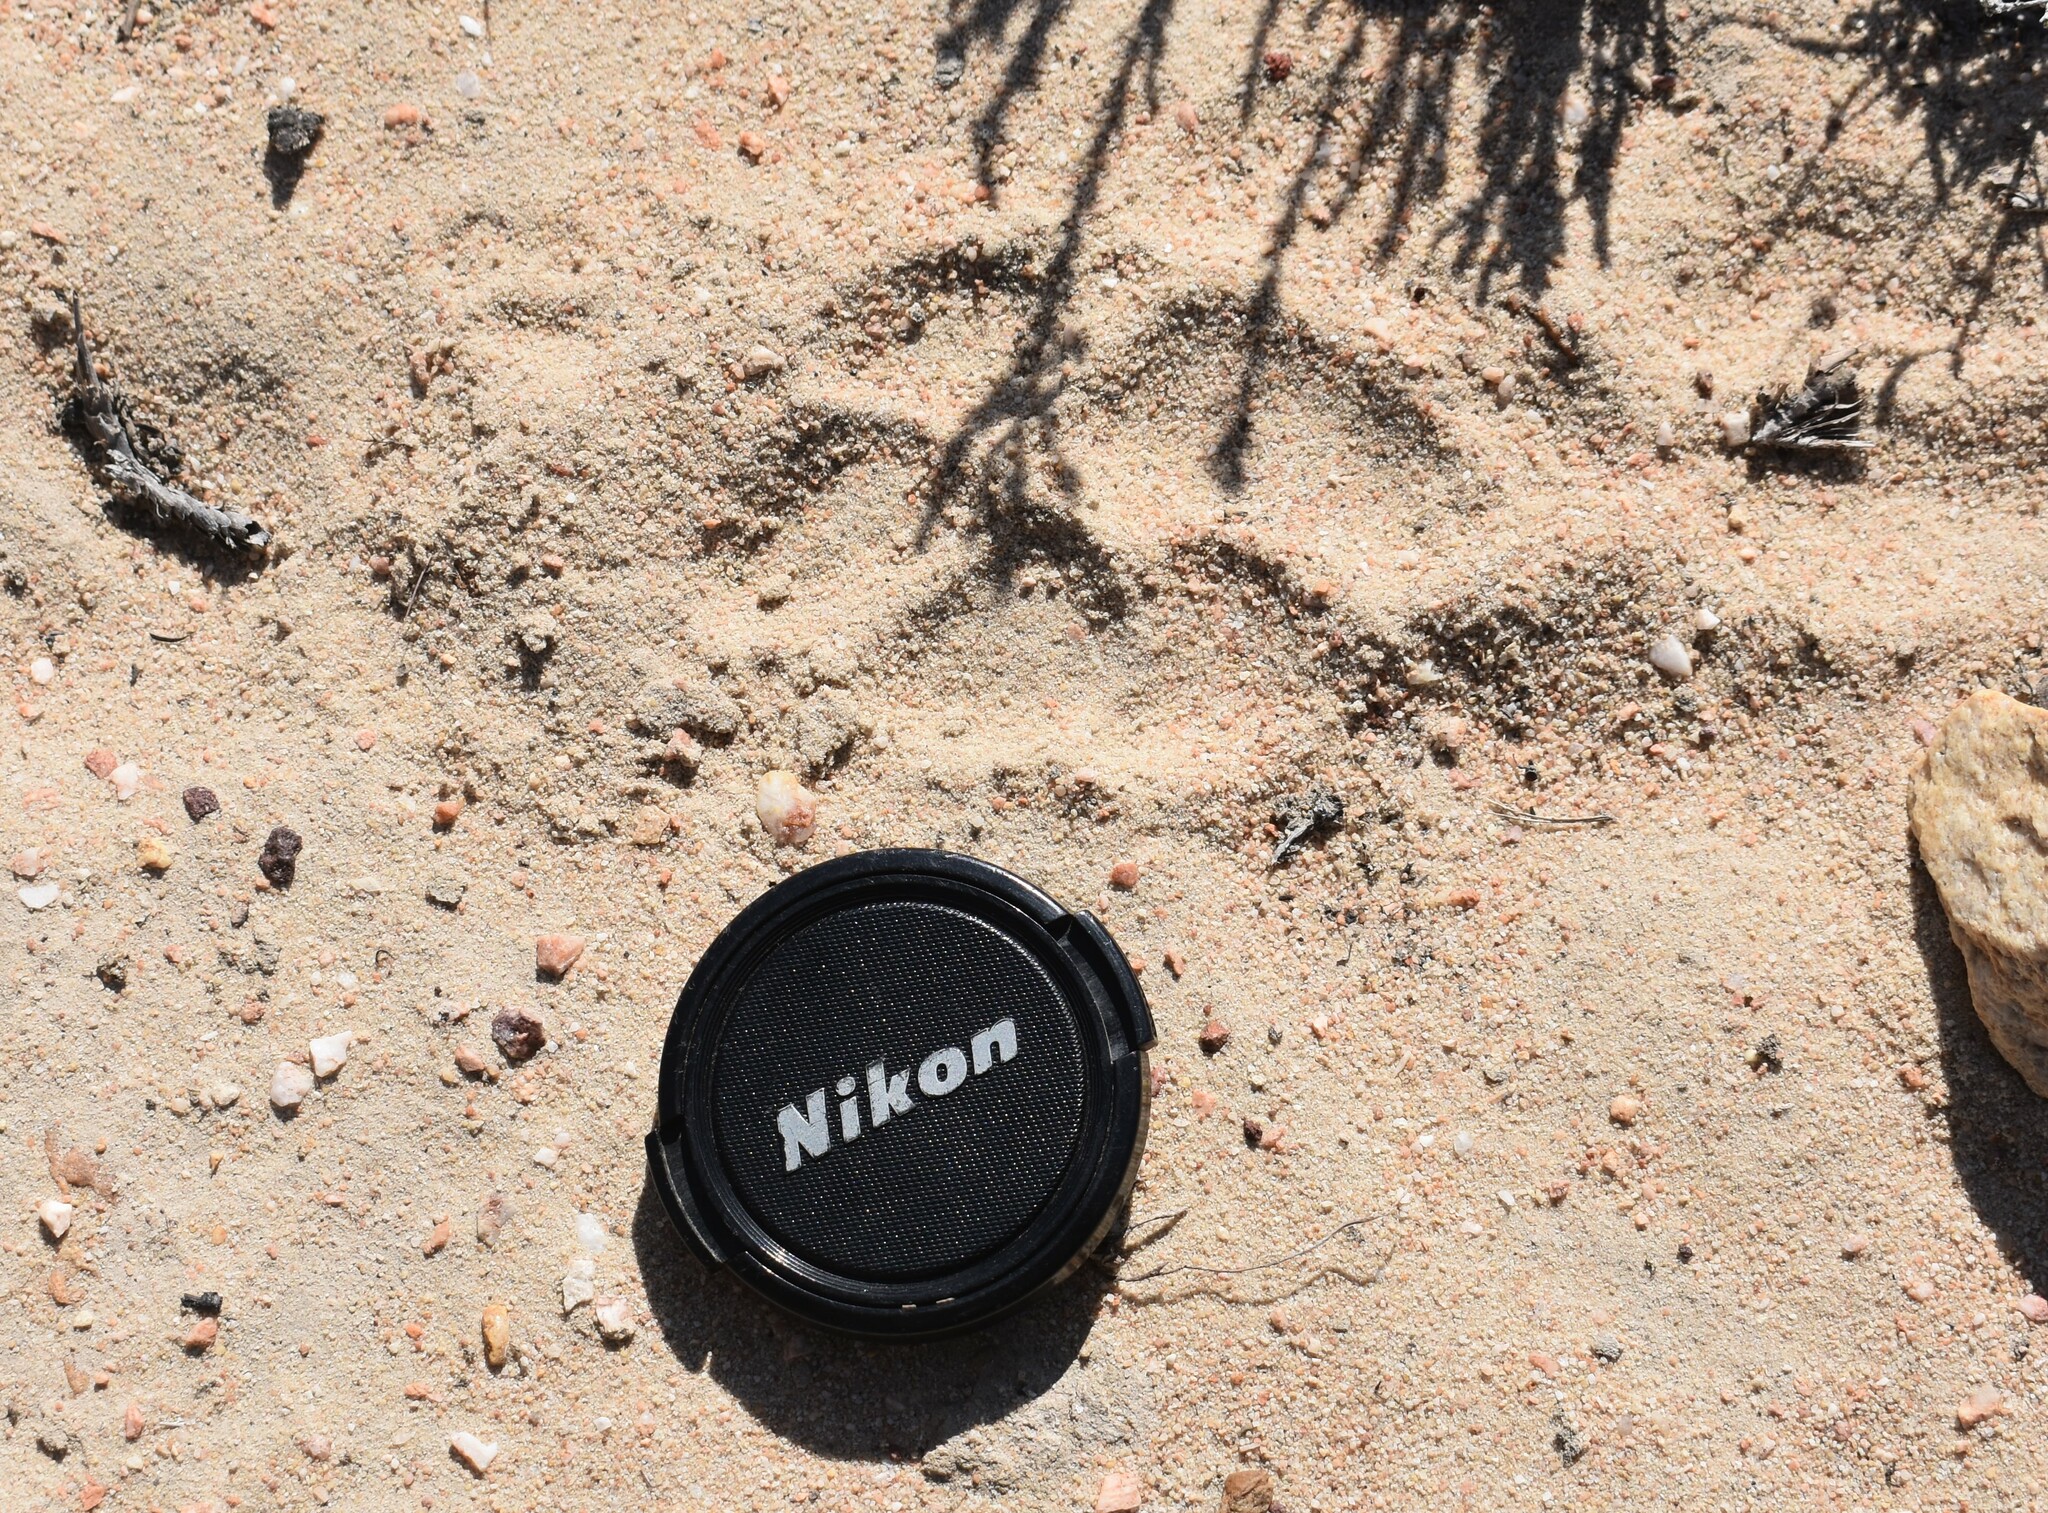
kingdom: Animalia
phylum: Chordata
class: Mammalia
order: Carnivora
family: Hyaenidae
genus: Hyaena
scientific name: Hyaena brunnea
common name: Brown hyena
